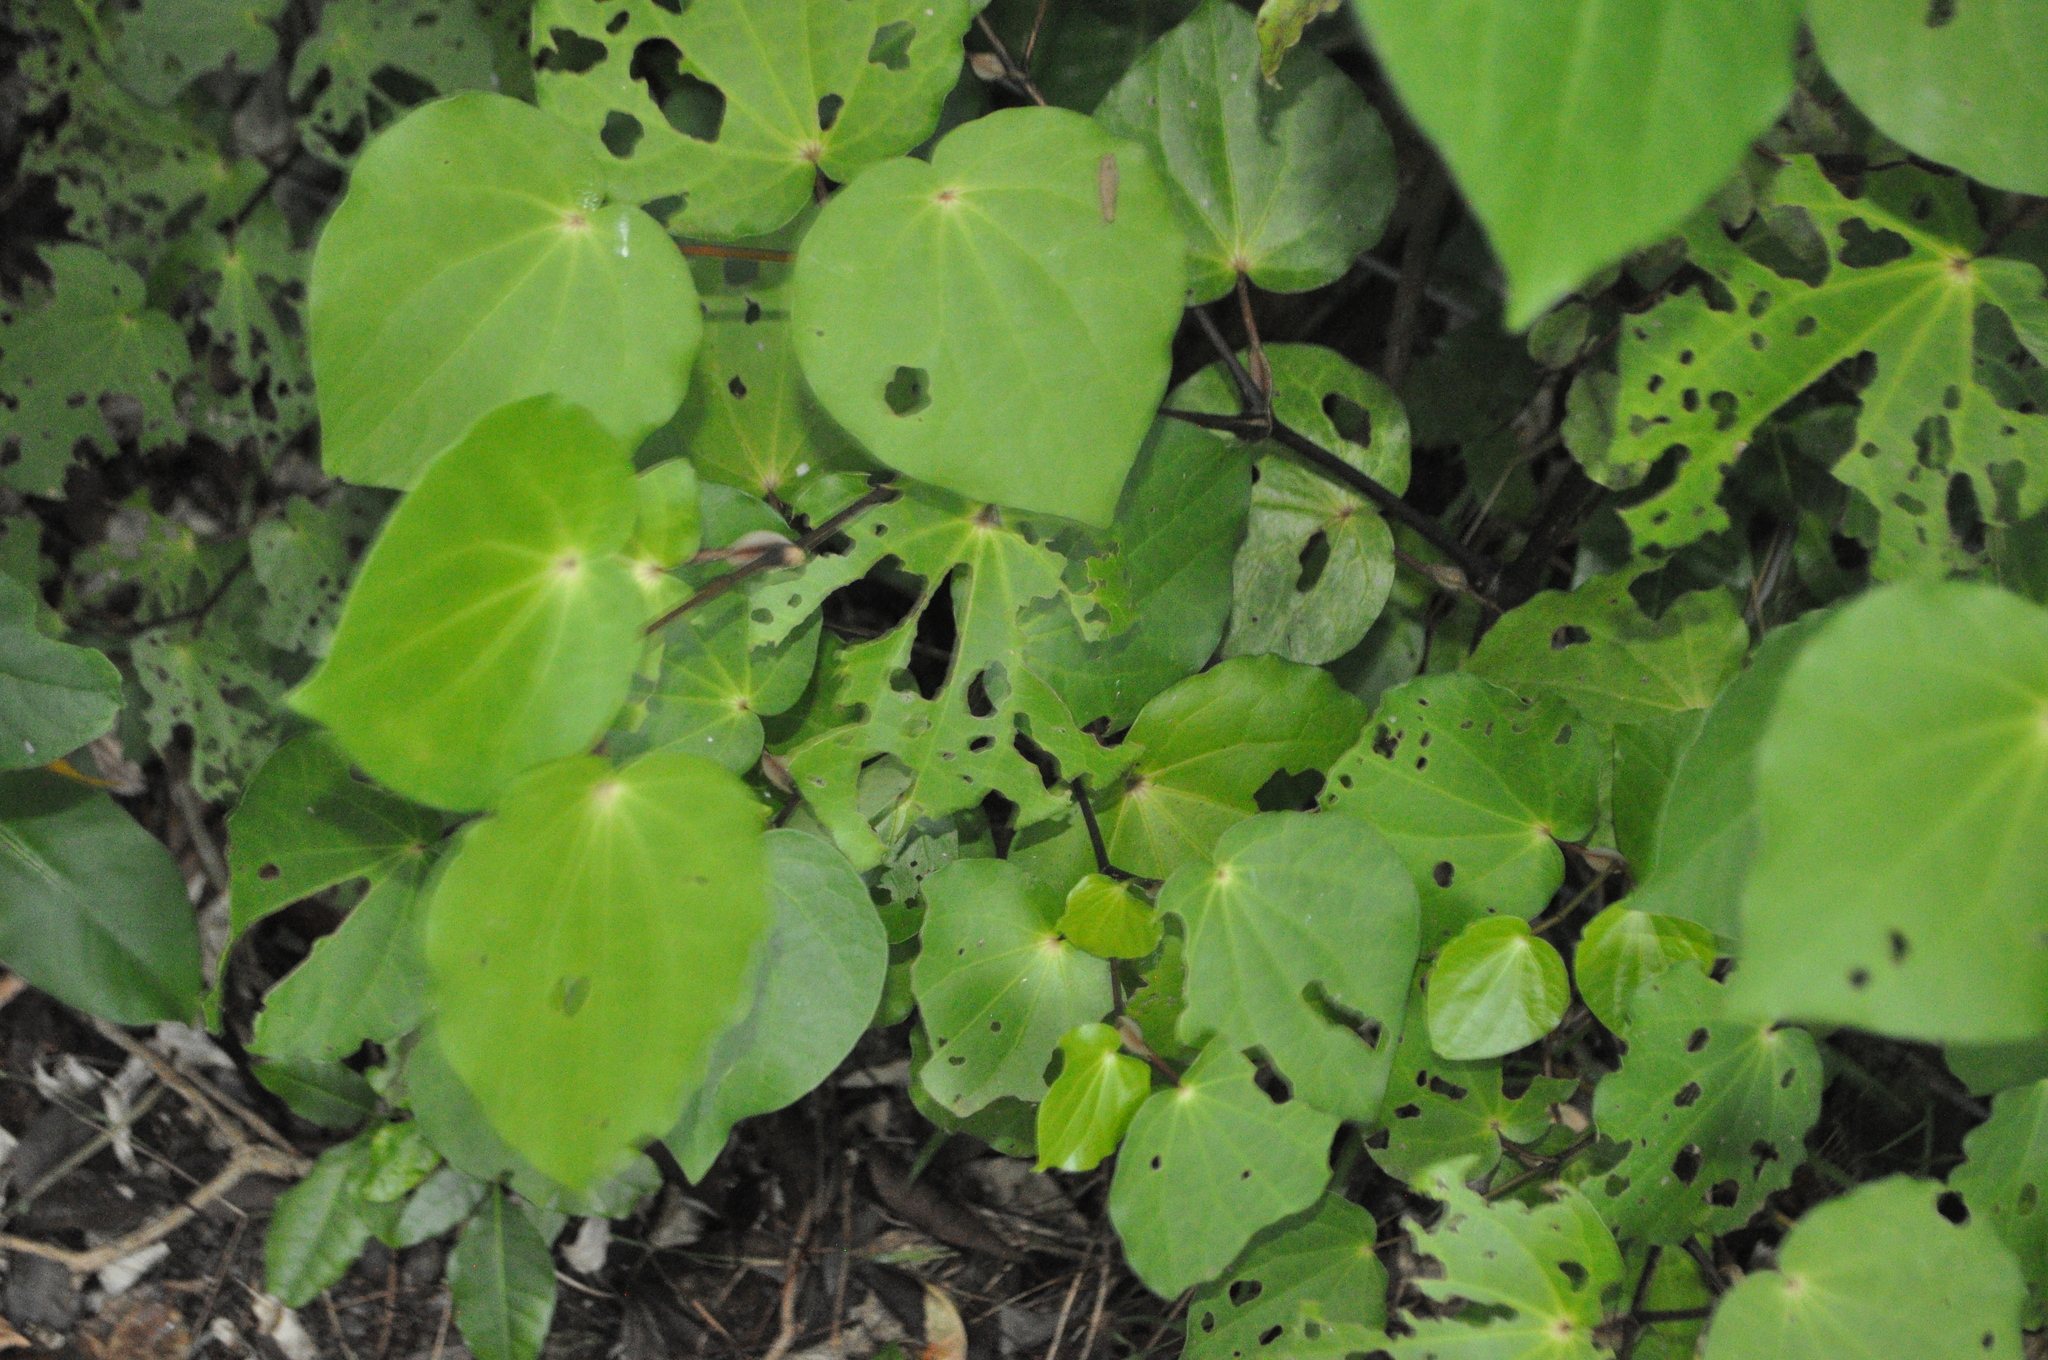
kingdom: Plantae
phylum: Tracheophyta
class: Magnoliopsida
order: Piperales
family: Piperaceae
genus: Macropiper
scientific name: Macropiper excelsum
